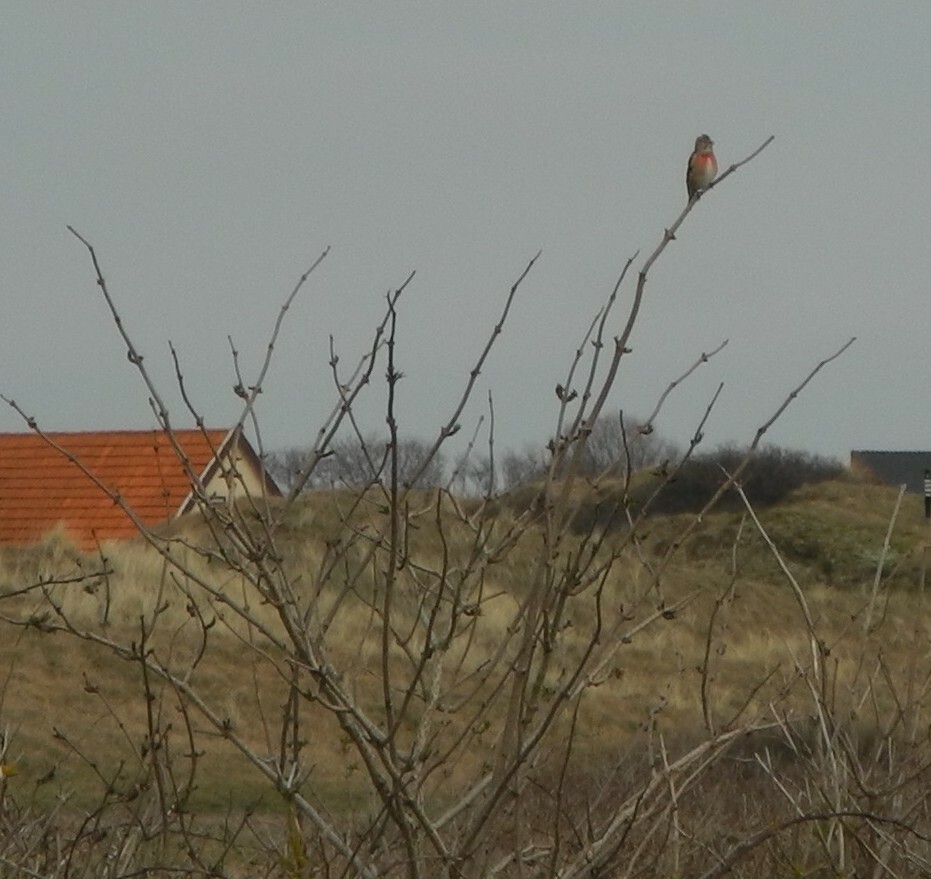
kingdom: Animalia
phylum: Chordata
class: Aves
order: Passeriformes
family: Fringillidae
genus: Linaria
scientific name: Linaria cannabina
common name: Common linnet
